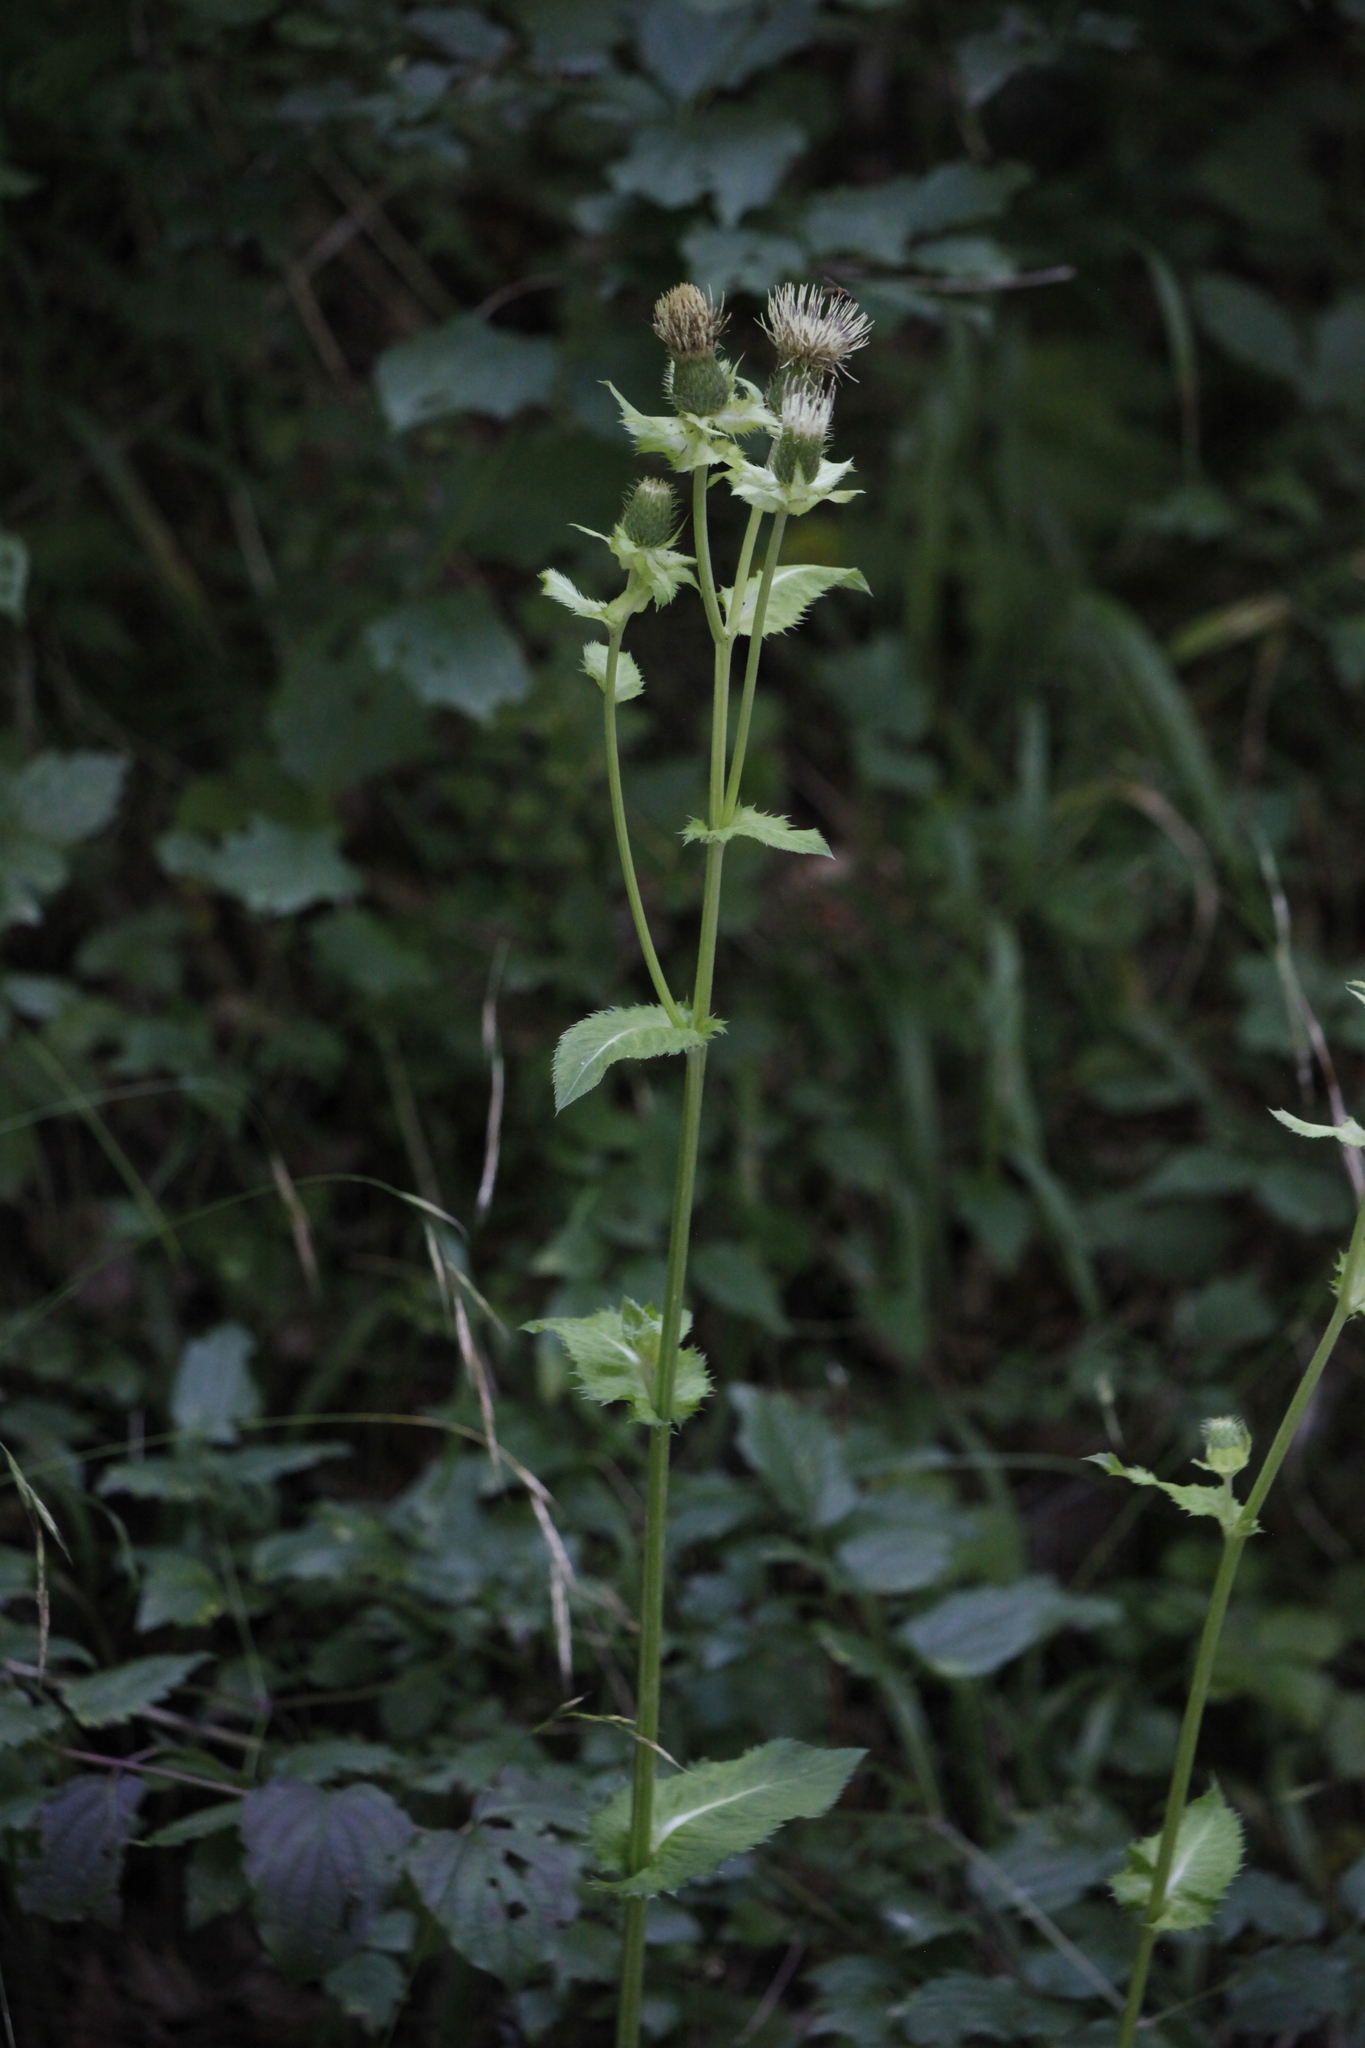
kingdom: Plantae
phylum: Tracheophyta
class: Magnoliopsida
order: Asterales
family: Asteraceae
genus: Cirsium
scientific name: Cirsium oleraceum
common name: Cabbage thistle
